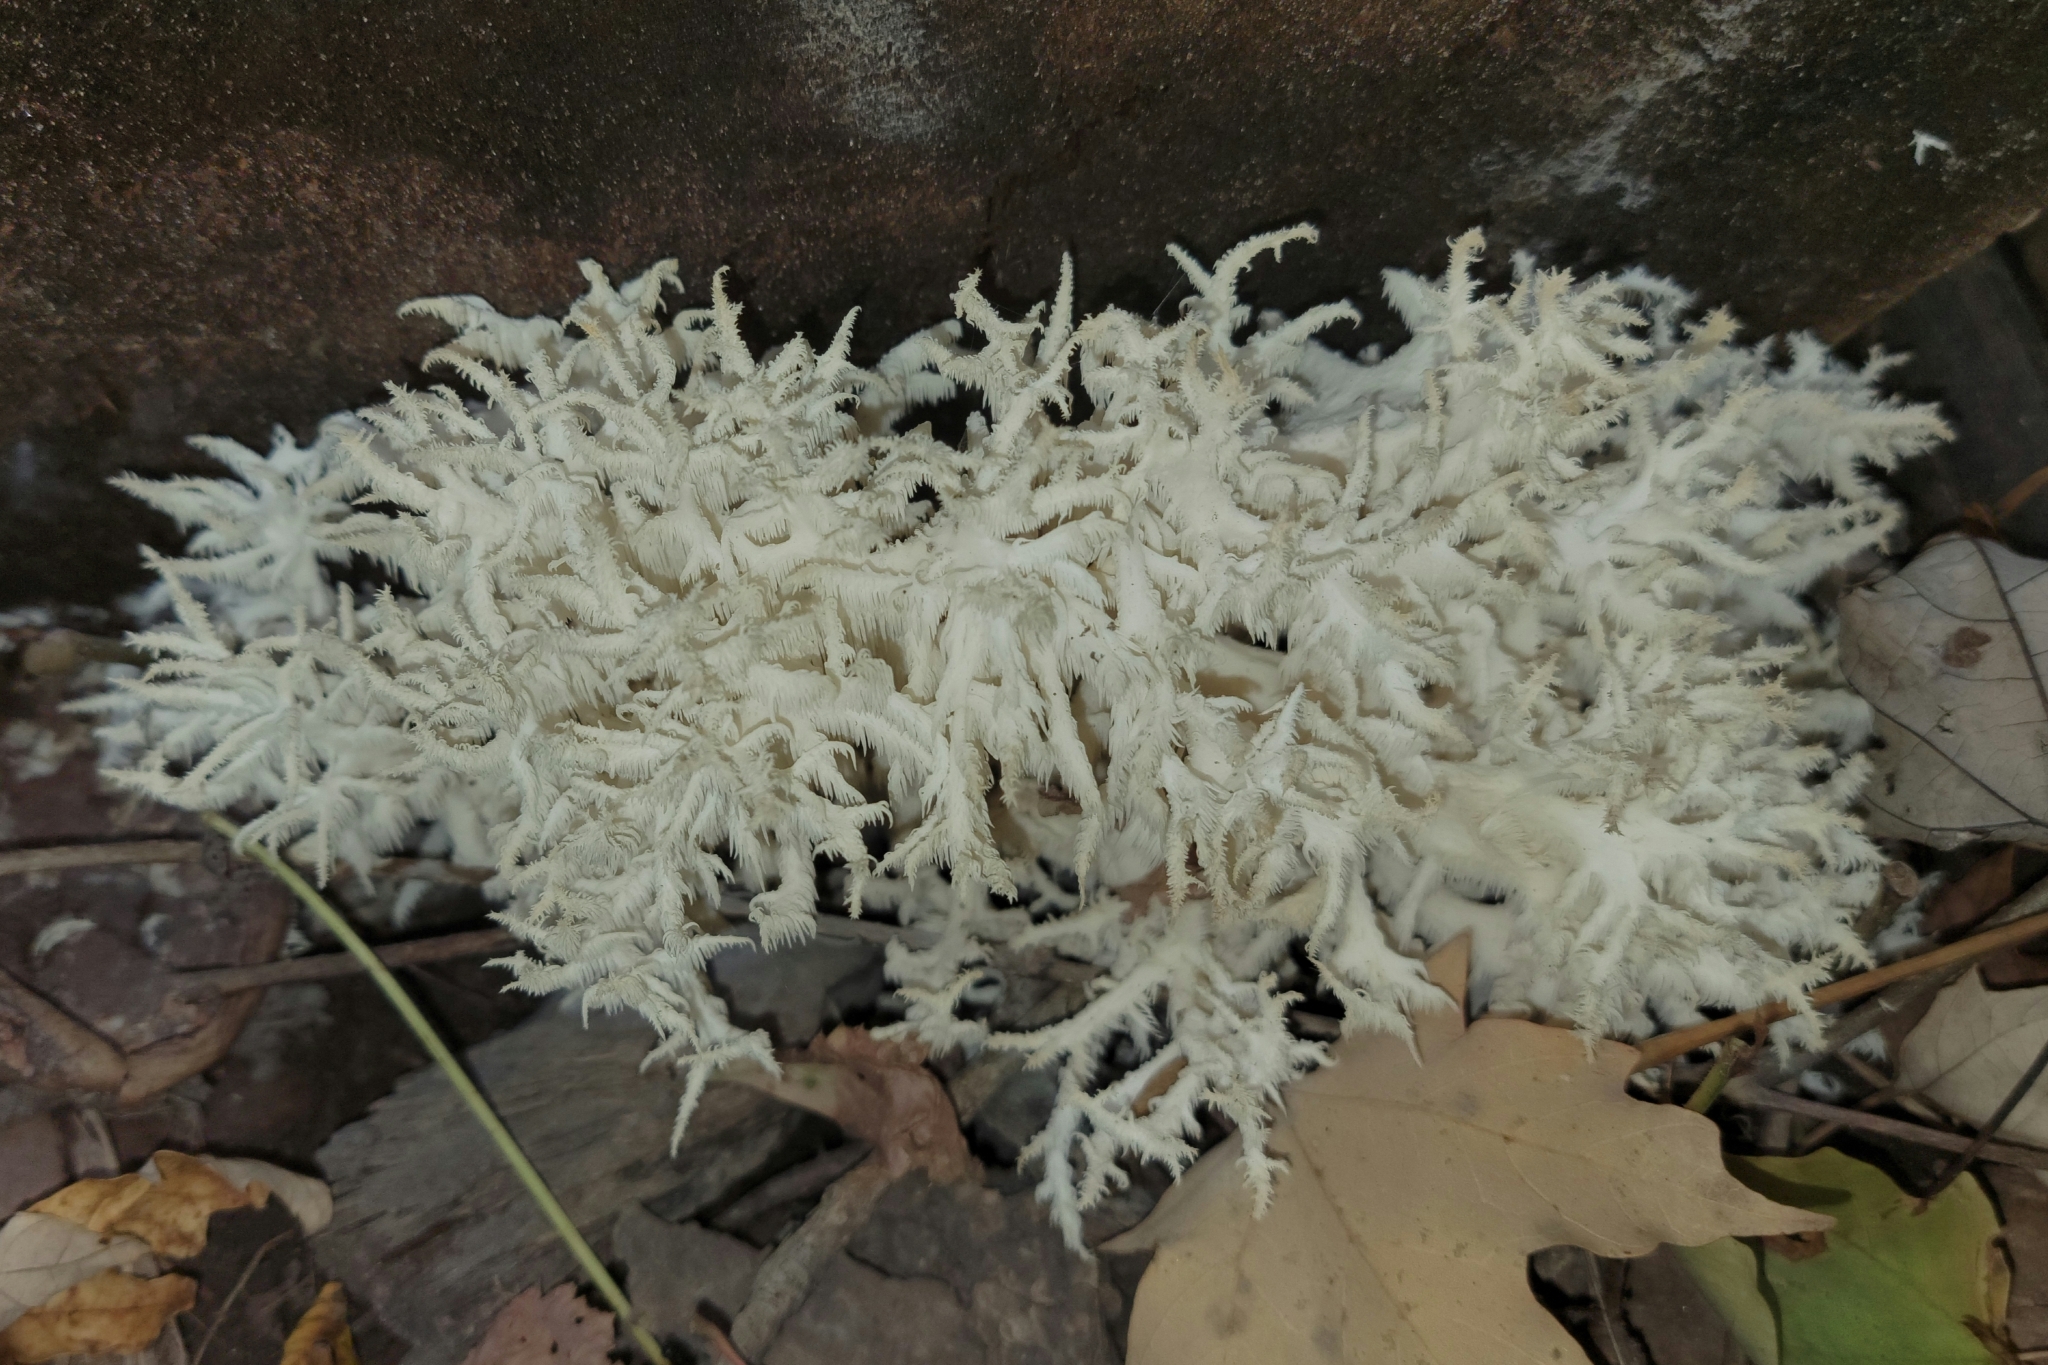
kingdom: Fungi
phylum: Basidiomycota
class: Agaricomycetes
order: Russulales
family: Hericiaceae
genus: Hericium
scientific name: Hericium coralloides
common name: Coral tooth
